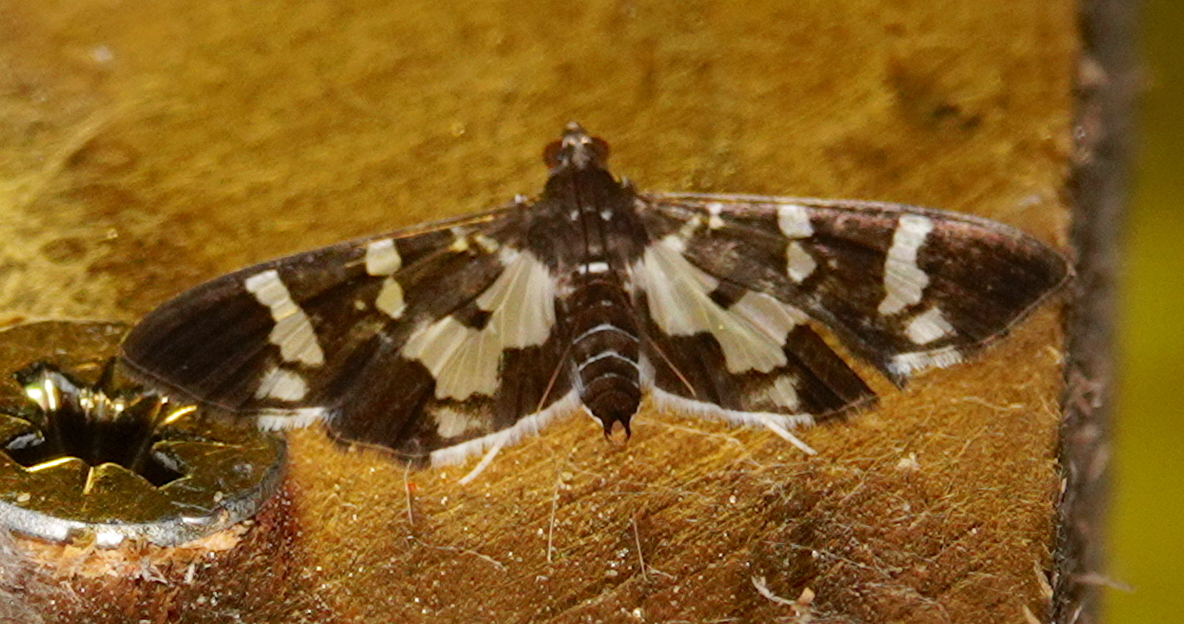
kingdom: Animalia
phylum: Arthropoda
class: Insecta
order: Lepidoptera
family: Crambidae
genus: Desmia
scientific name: Desmia bajulalis
